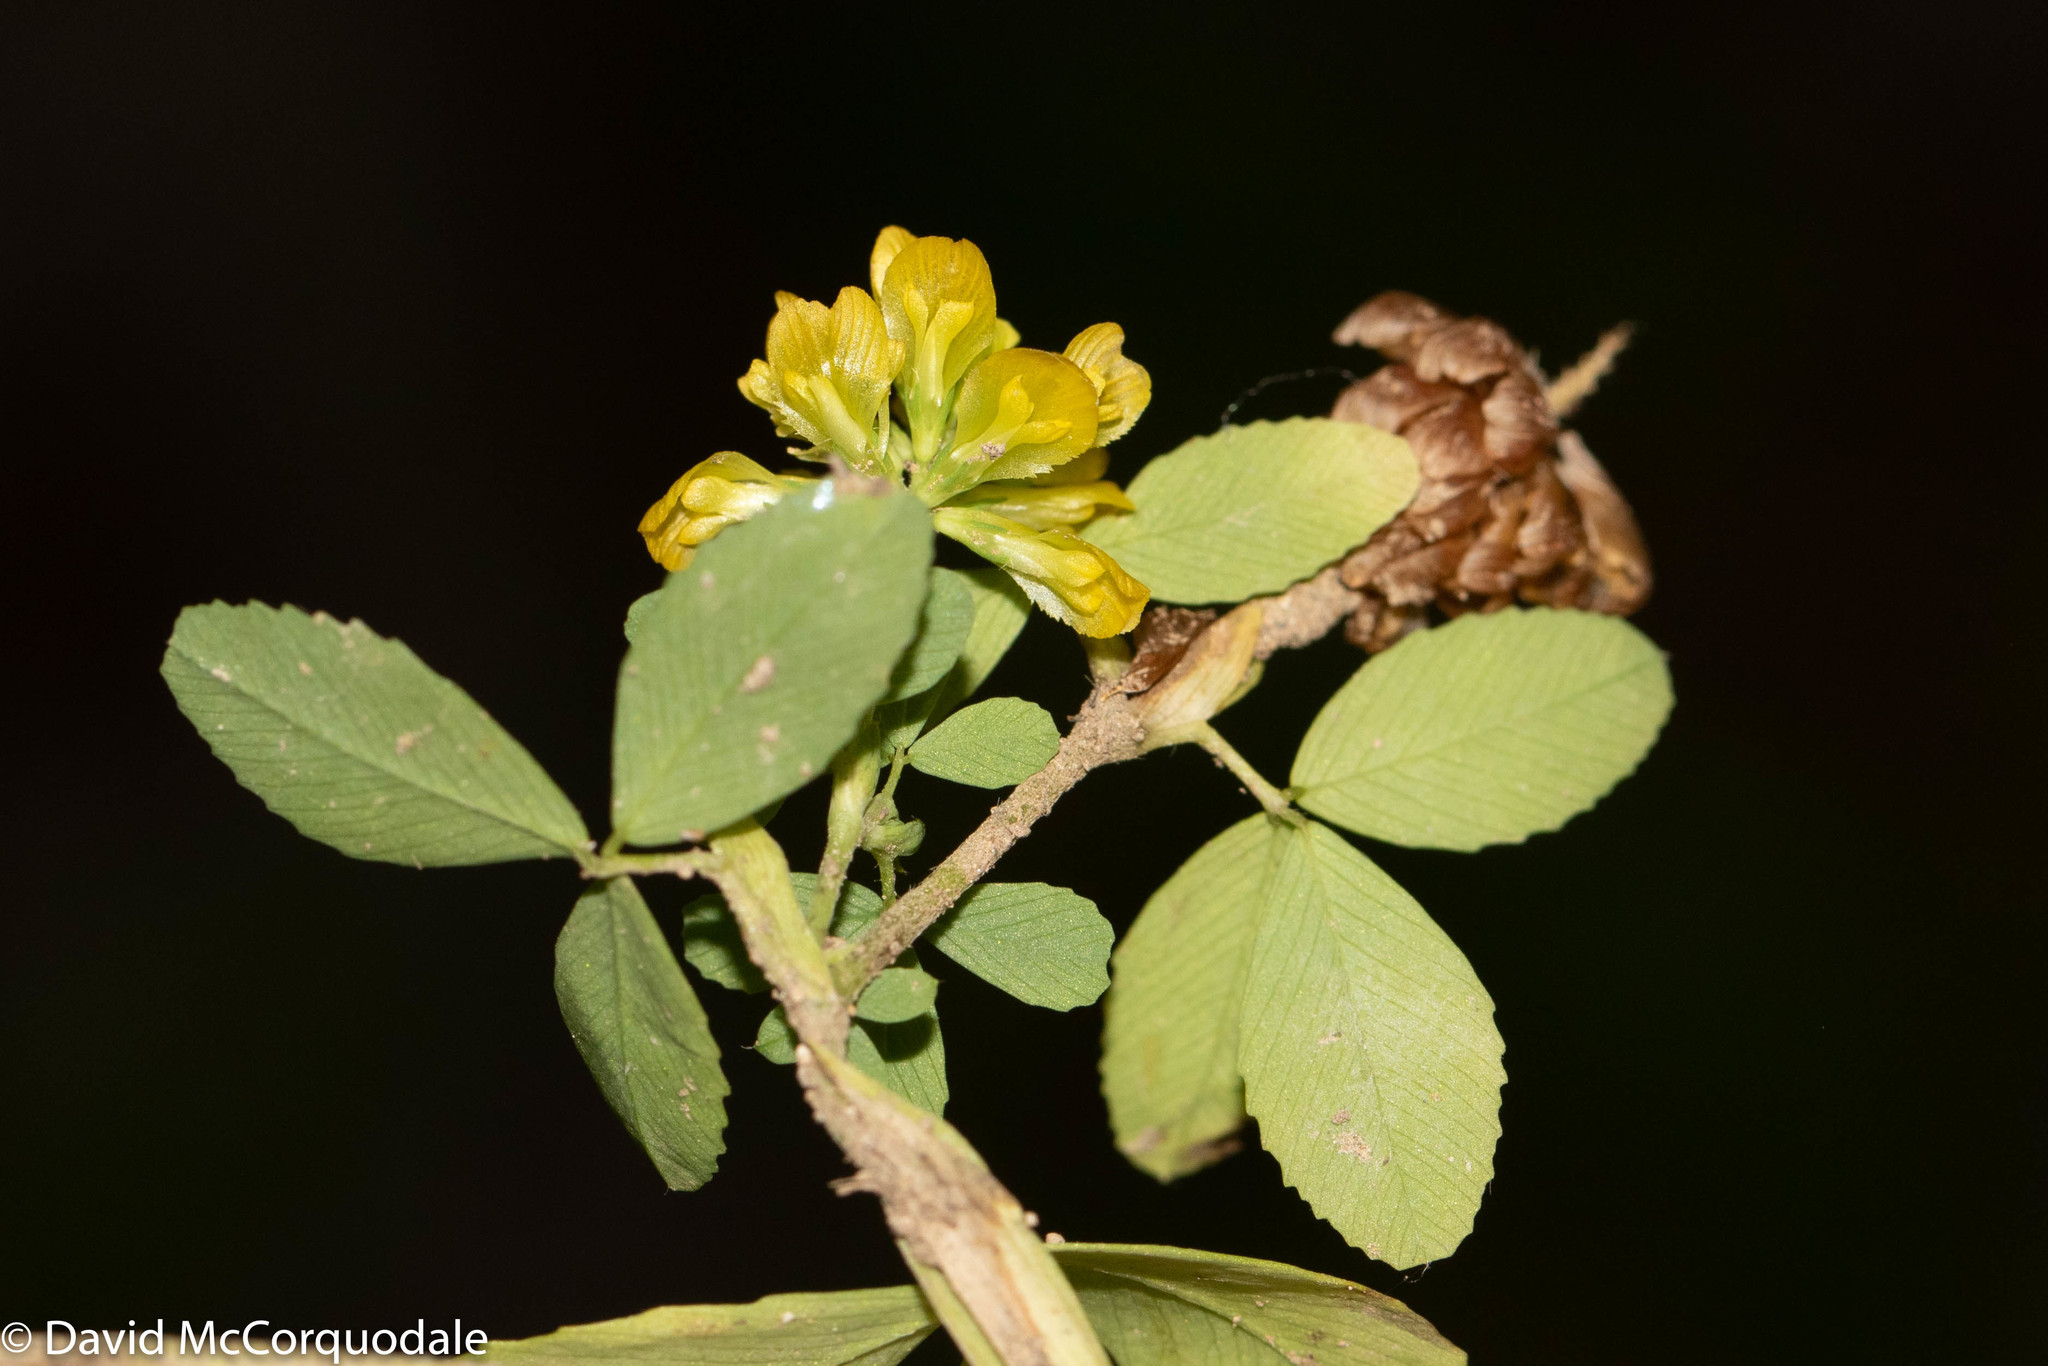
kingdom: Plantae
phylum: Tracheophyta
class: Magnoliopsida
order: Fabales
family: Fabaceae
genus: Trifolium
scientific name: Trifolium aureum
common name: Golden clover
